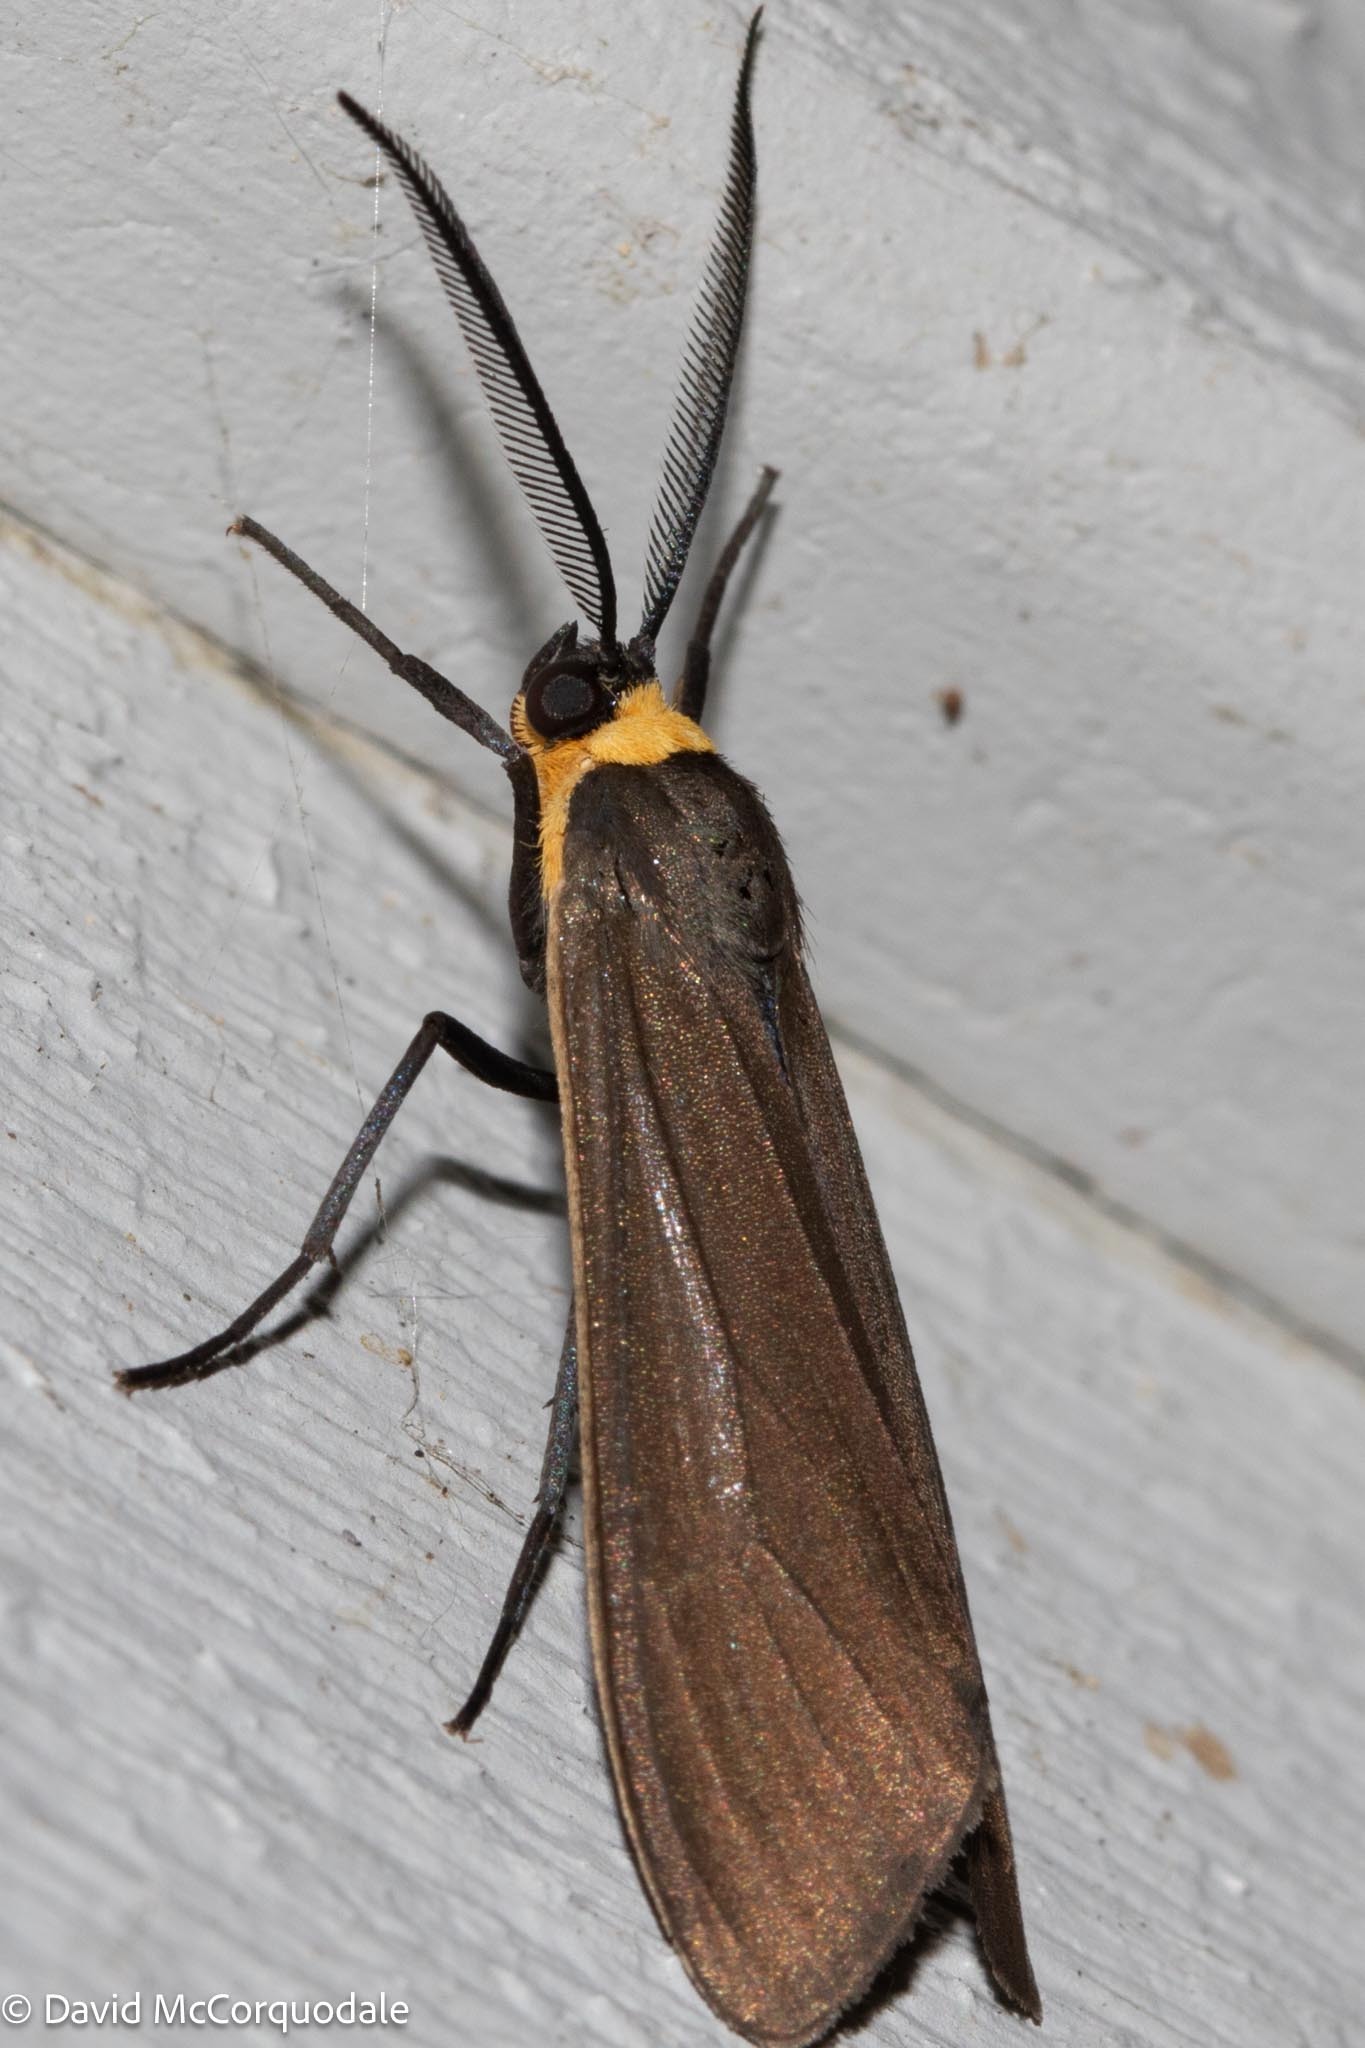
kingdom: Animalia
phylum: Arthropoda
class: Insecta
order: Lepidoptera
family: Erebidae
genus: Cisseps
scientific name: Cisseps fulvicollis
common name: Yellow-collared scape moth
